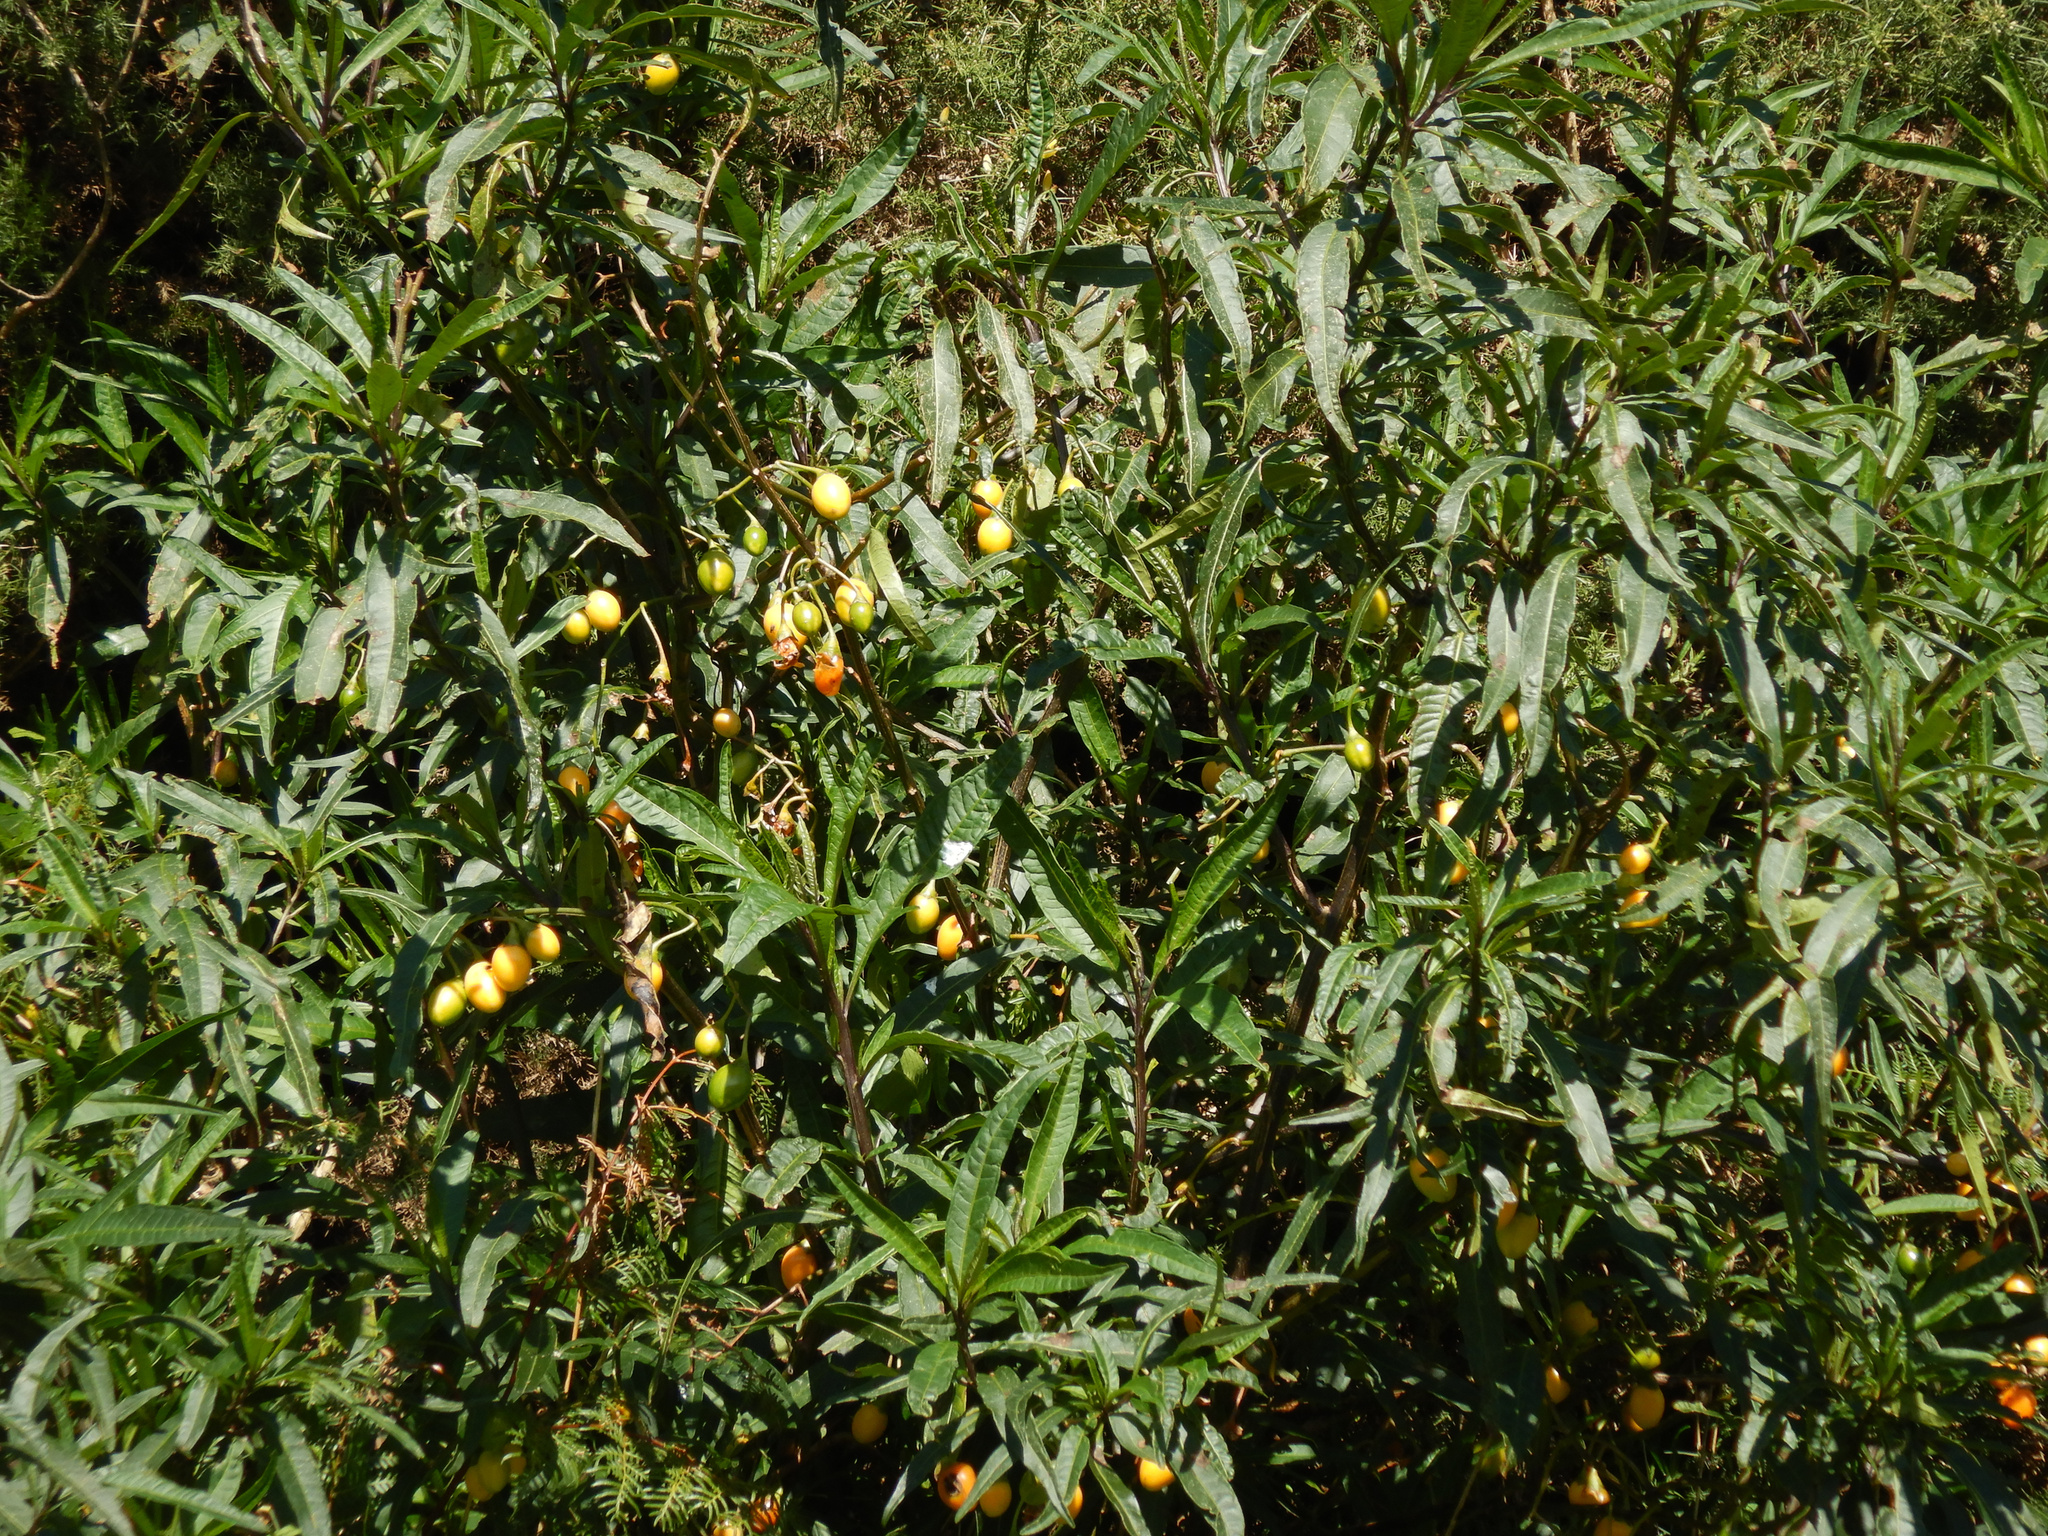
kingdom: Plantae
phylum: Tracheophyta
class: Magnoliopsida
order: Solanales
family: Solanaceae
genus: Solanum
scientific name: Solanum laciniatum
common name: Kangaroo-apple
